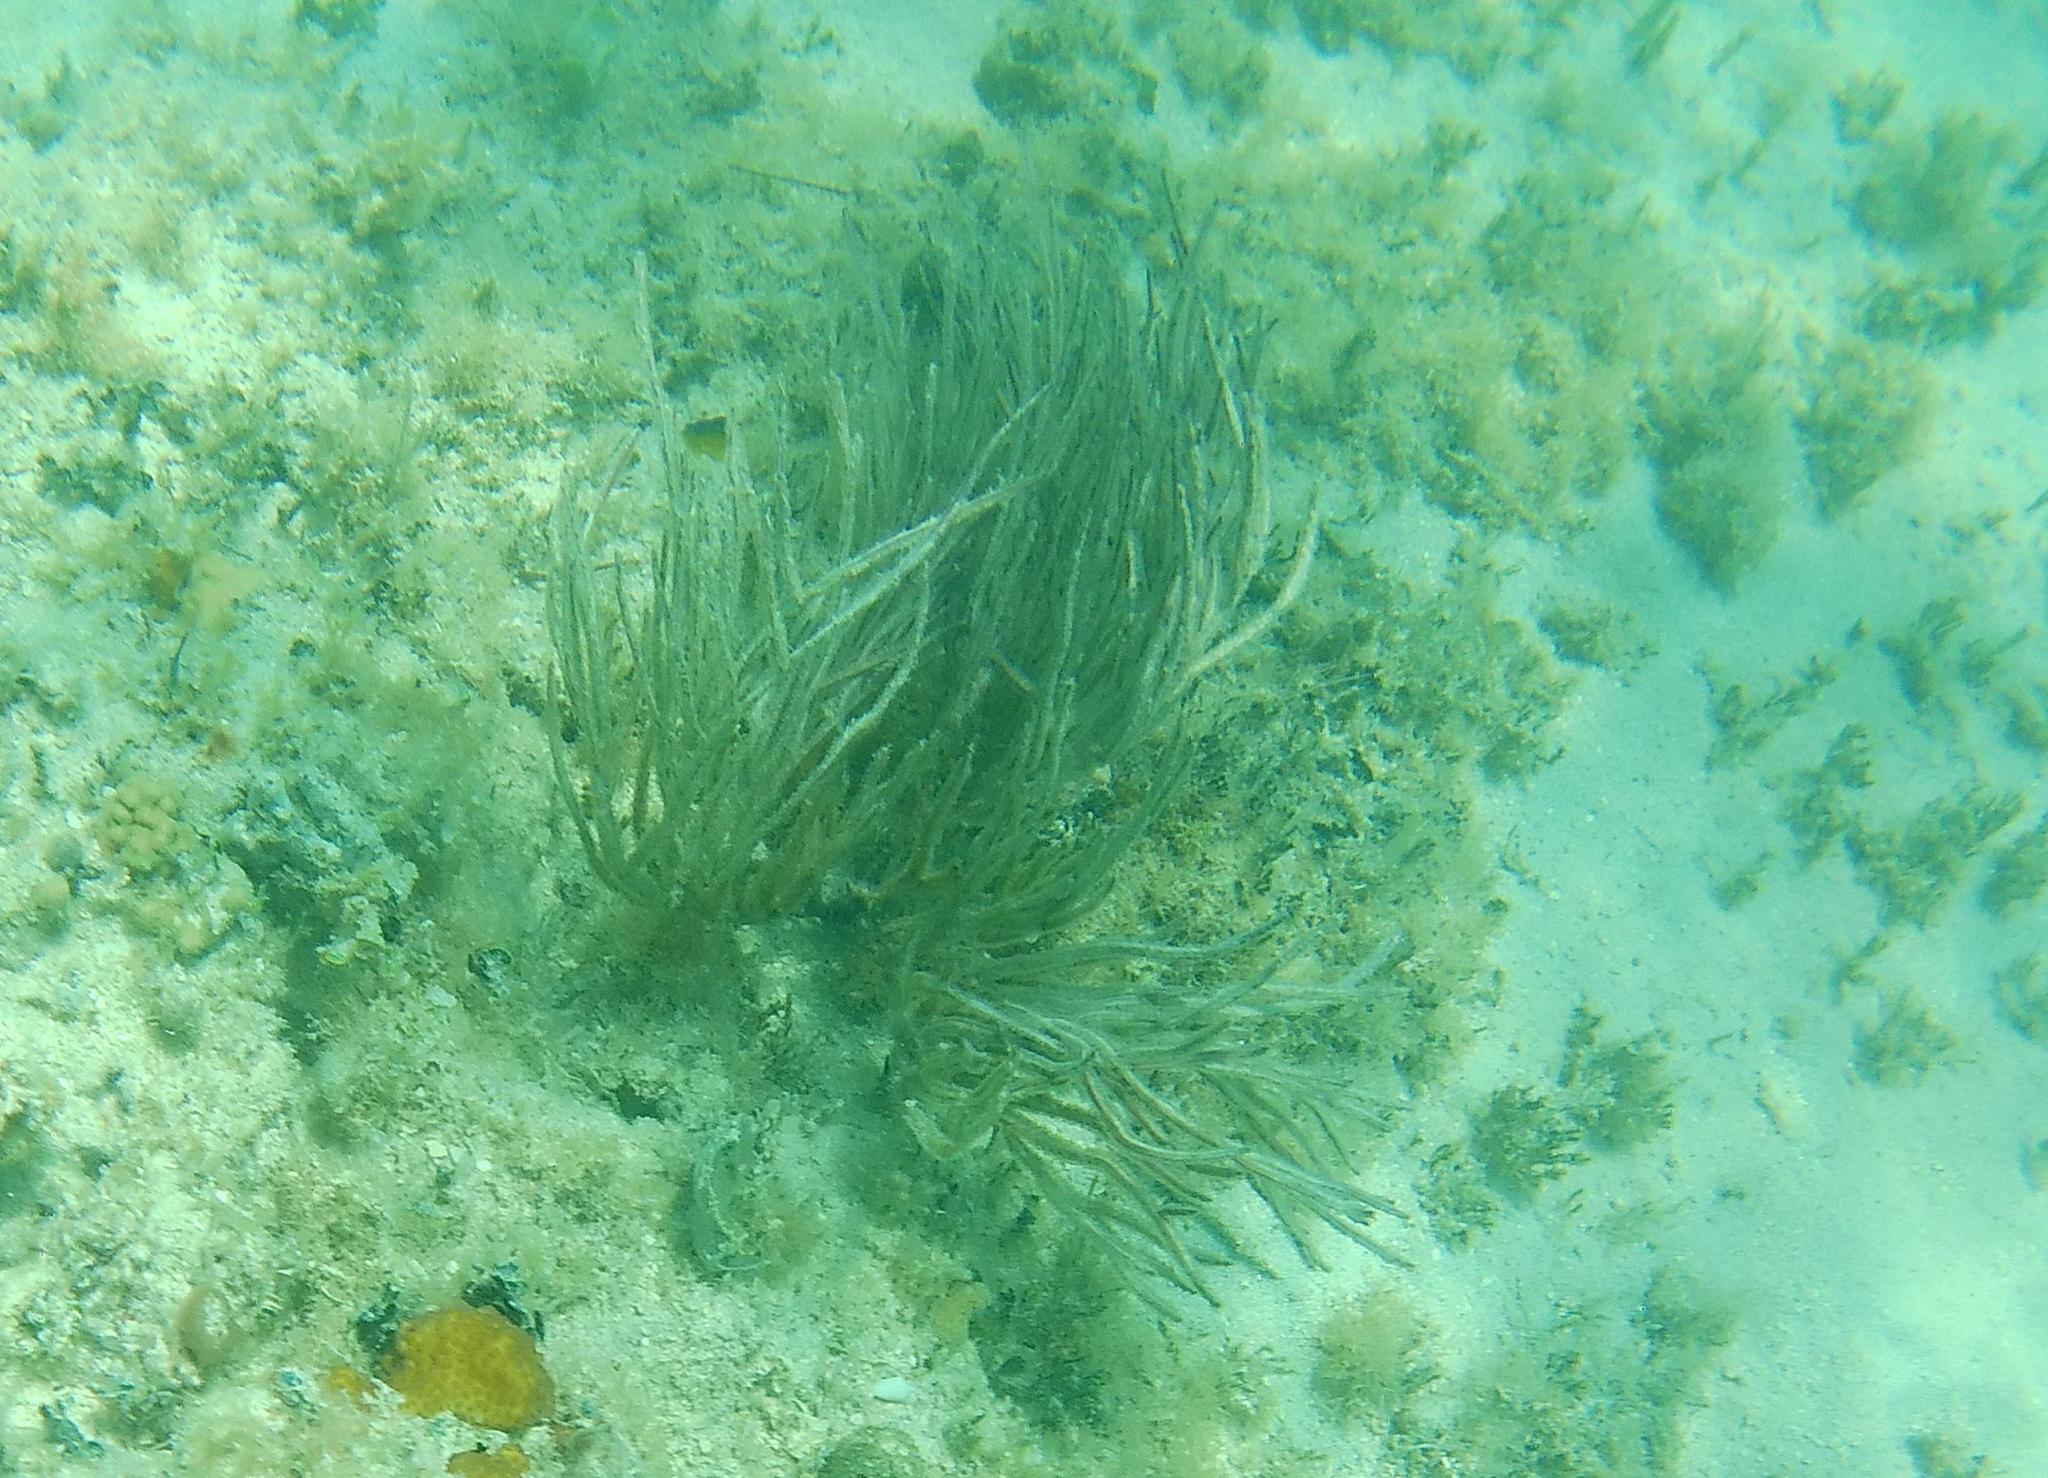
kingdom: Animalia
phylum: Cnidaria
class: Anthozoa
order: Malacalcyonacea
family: Pterogorgiidae
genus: Pterogorgia
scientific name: Pterogorgia anceps
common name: Angular sea whip
